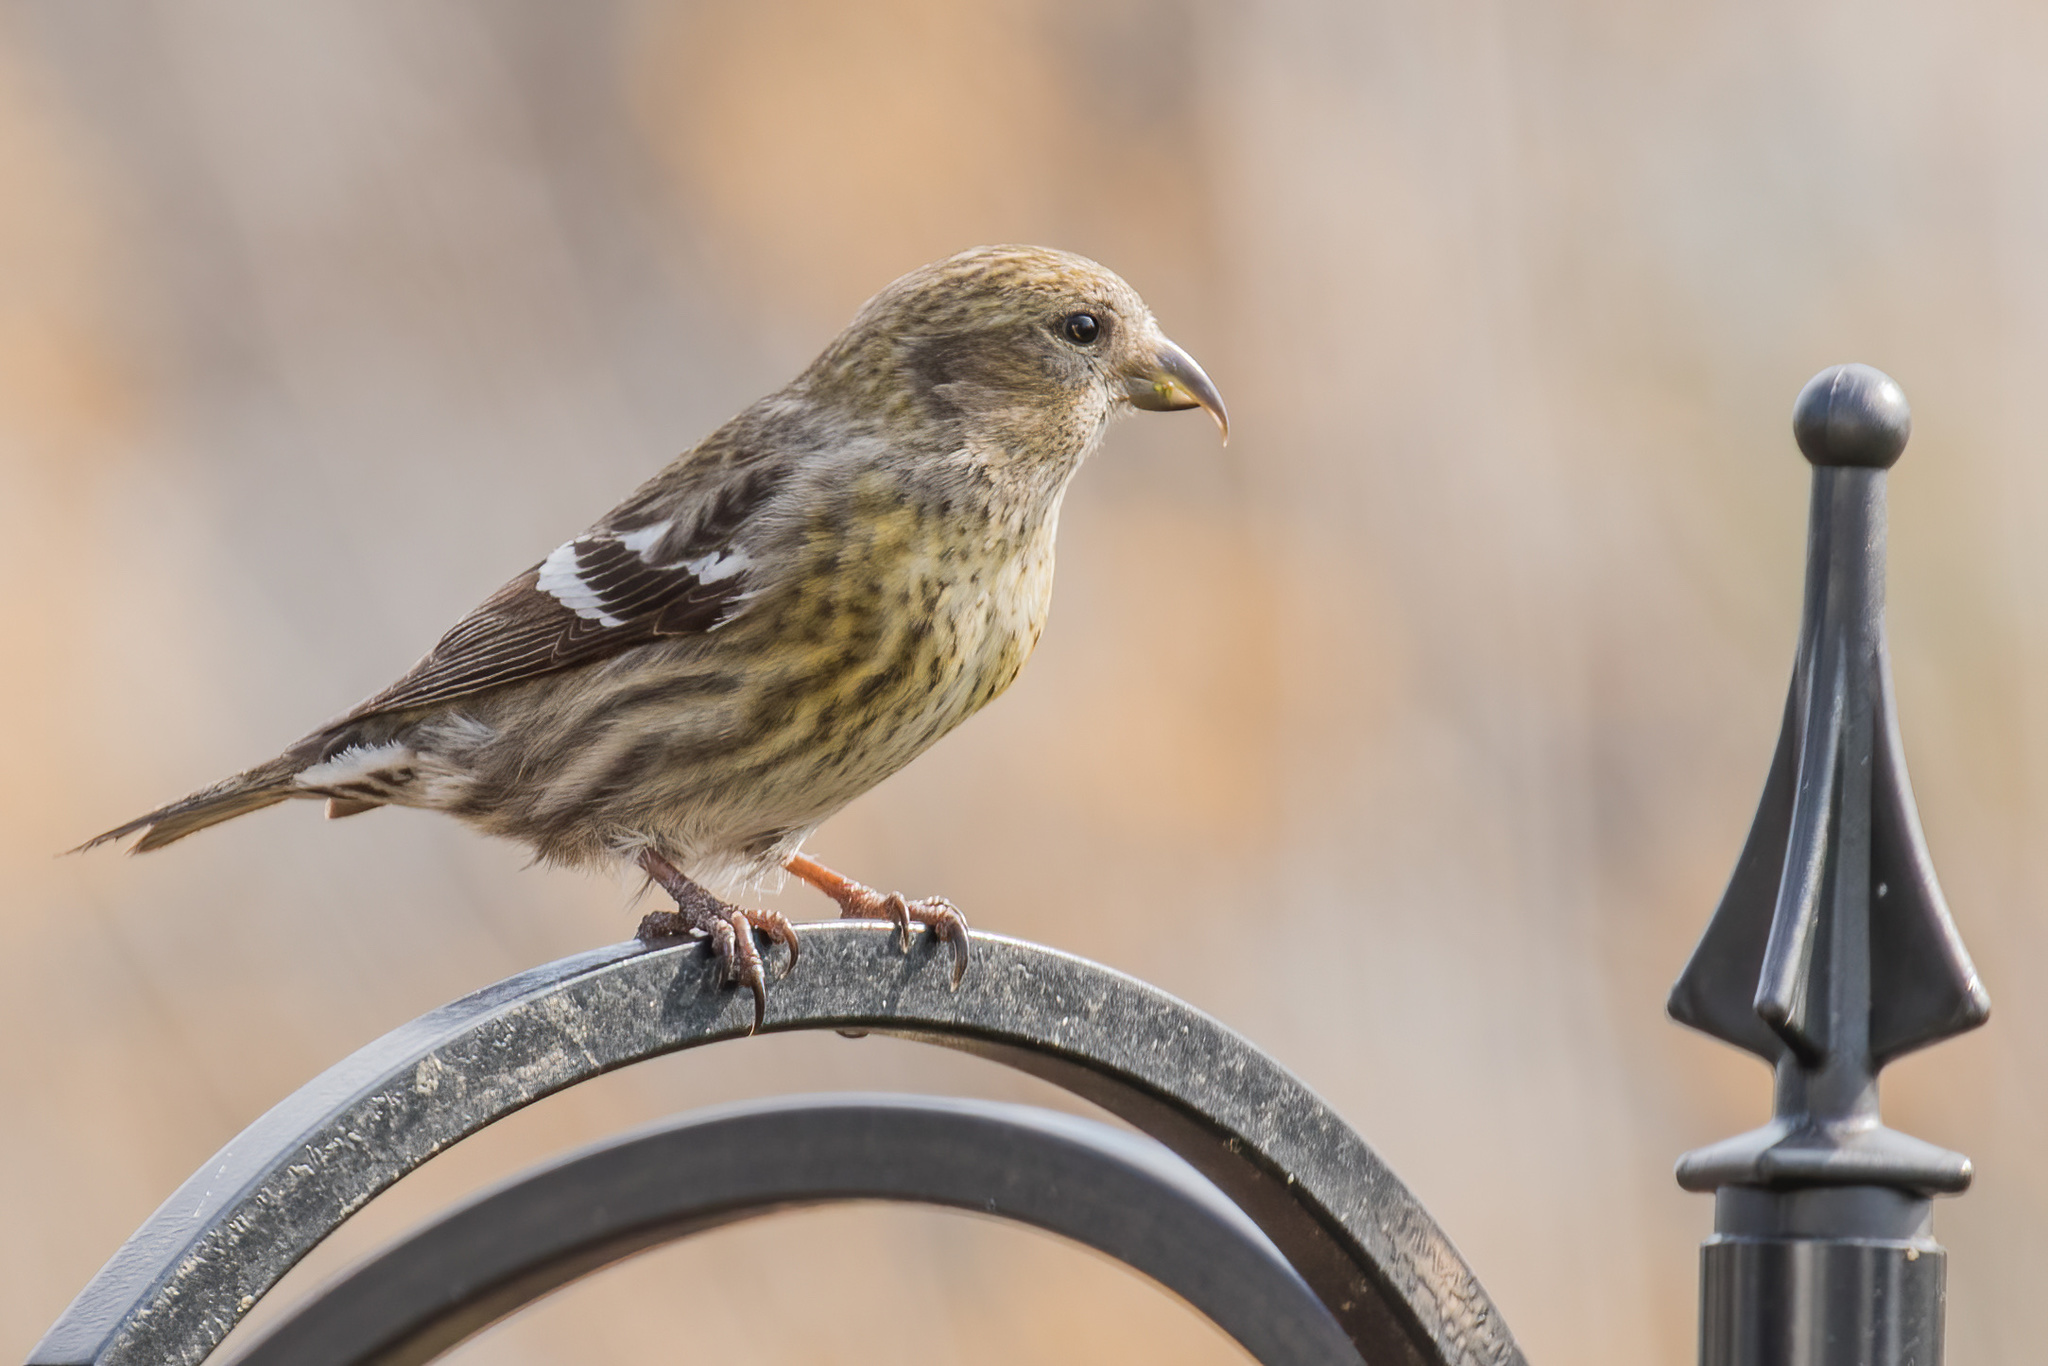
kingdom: Animalia
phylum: Chordata
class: Aves
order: Passeriformes
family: Fringillidae
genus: Loxia
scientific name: Loxia leucoptera
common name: Two-barred crossbill
